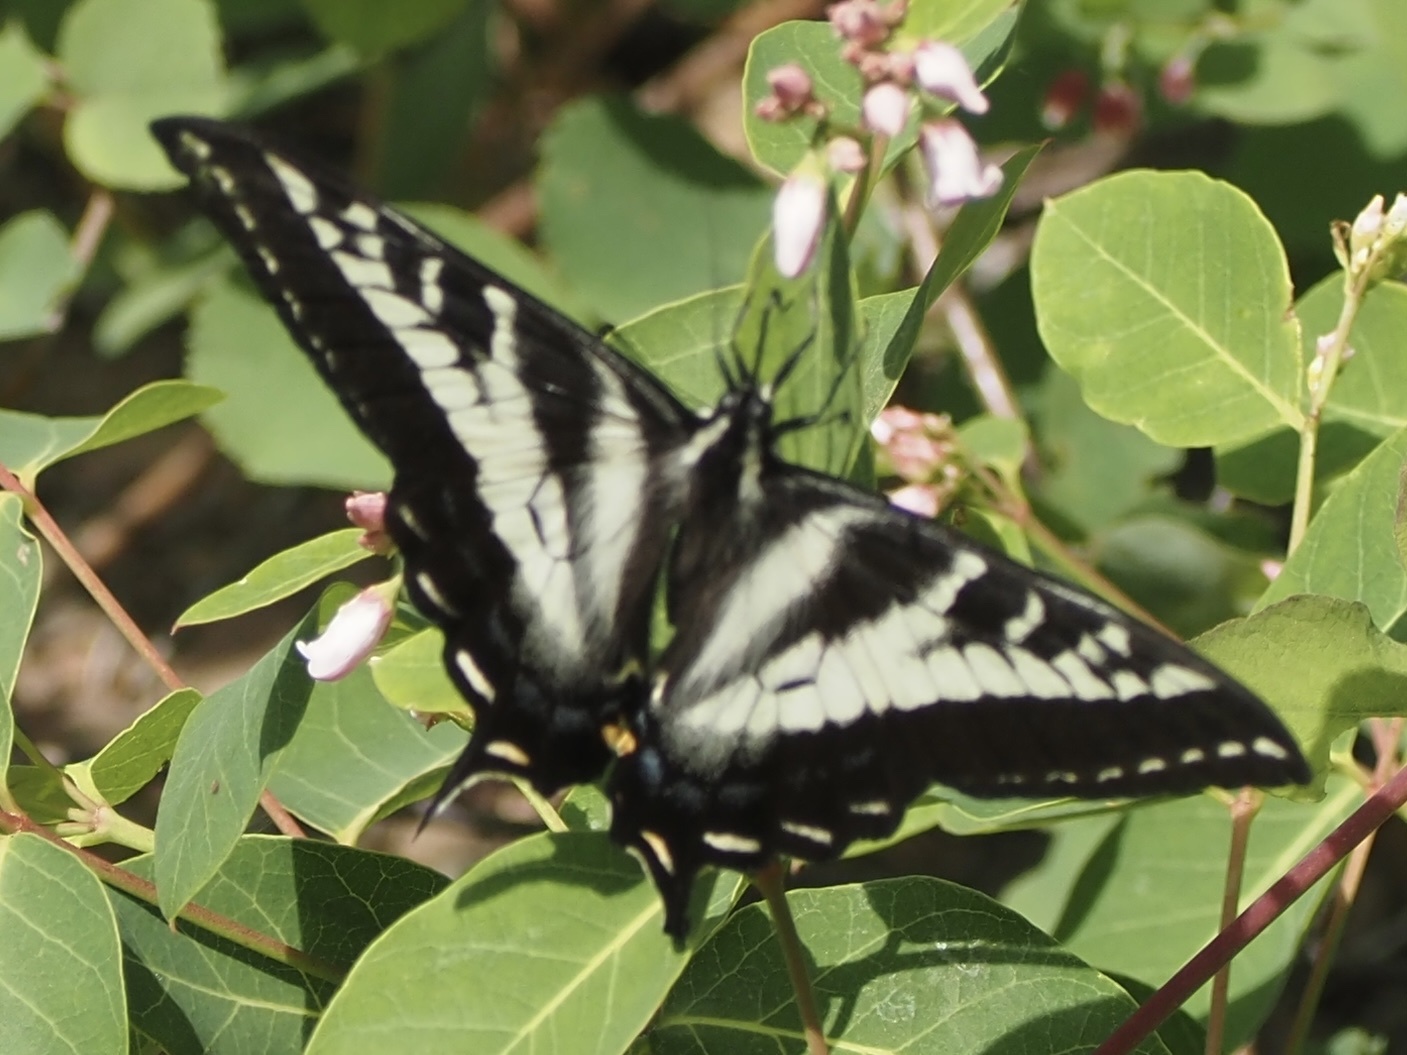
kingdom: Animalia
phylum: Arthropoda
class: Insecta
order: Lepidoptera
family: Papilionidae
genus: Papilio
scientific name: Papilio eurymedon
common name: Pale tiger swallowtail
